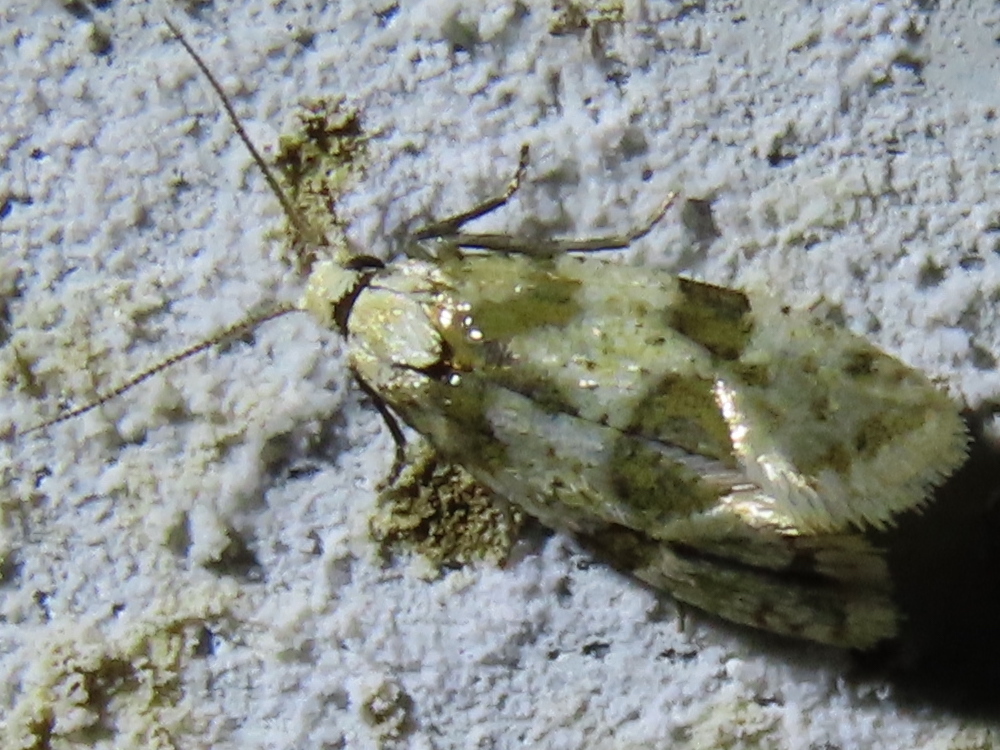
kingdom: Animalia
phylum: Arthropoda
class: Insecta
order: Lepidoptera
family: Tortricidae
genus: Aethes
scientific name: Aethes argentilimitana
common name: Silver-bordered aethes
